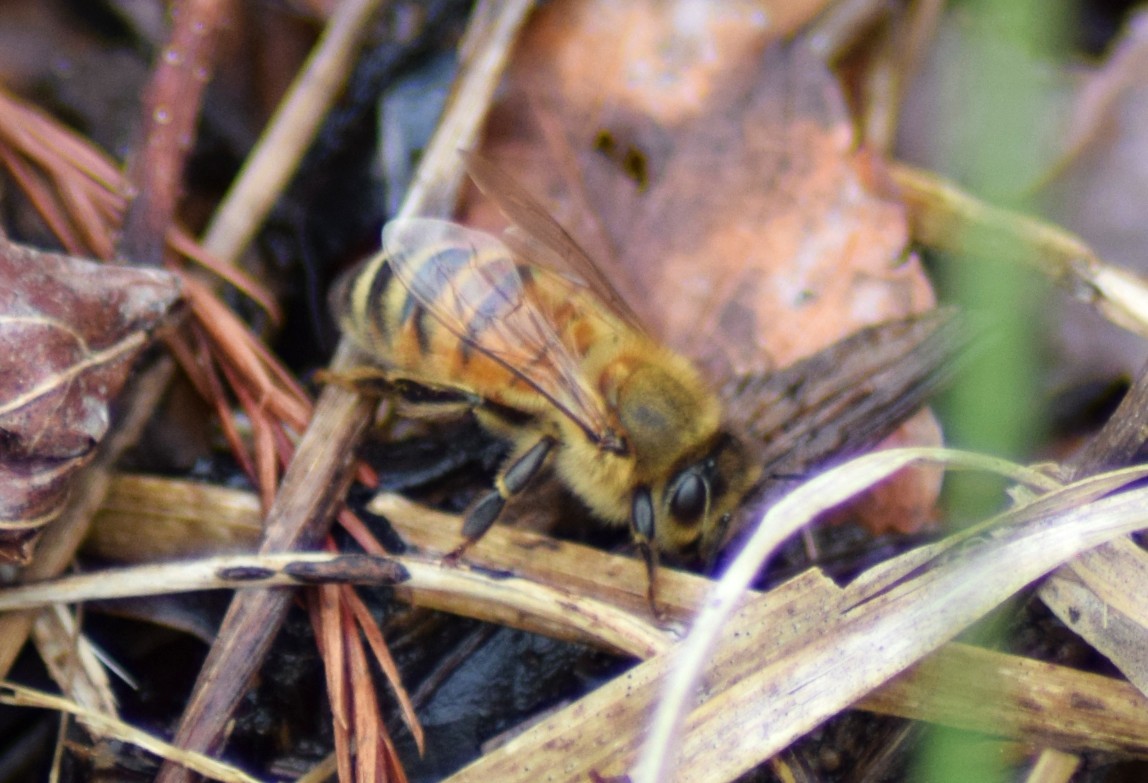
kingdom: Animalia
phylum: Arthropoda
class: Insecta
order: Hymenoptera
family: Apidae
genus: Apis
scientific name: Apis mellifera
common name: Honey bee
